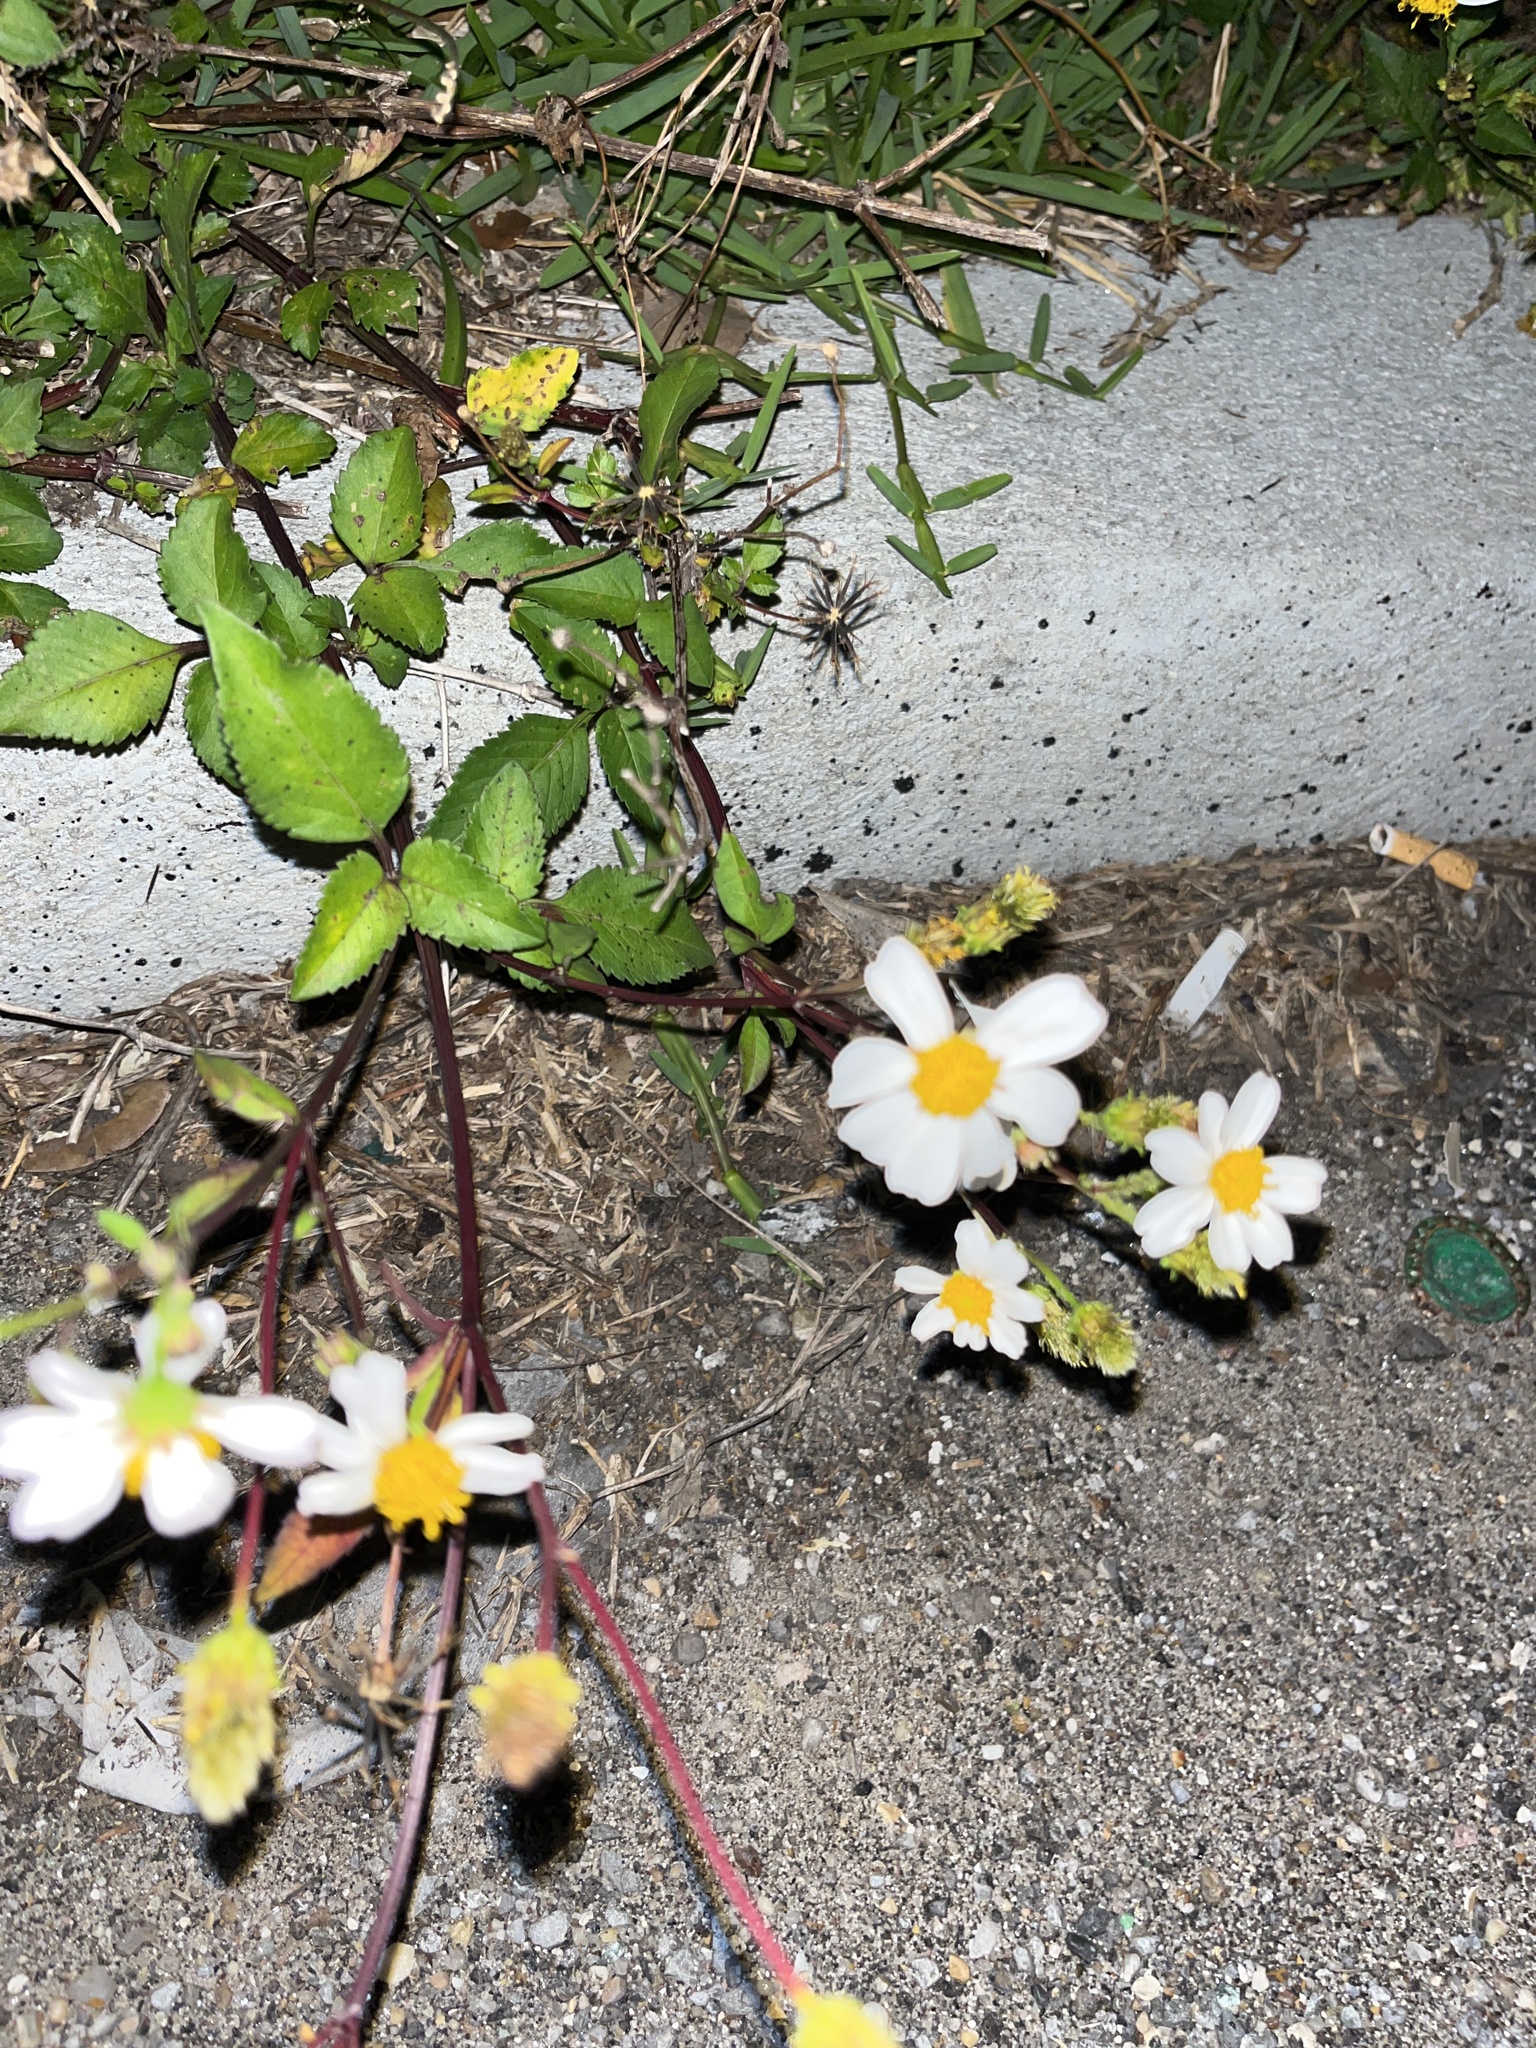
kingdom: Plantae
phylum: Tracheophyta
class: Magnoliopsida
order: Asterales
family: Asteraceae
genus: Bidens
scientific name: Bidens alba
